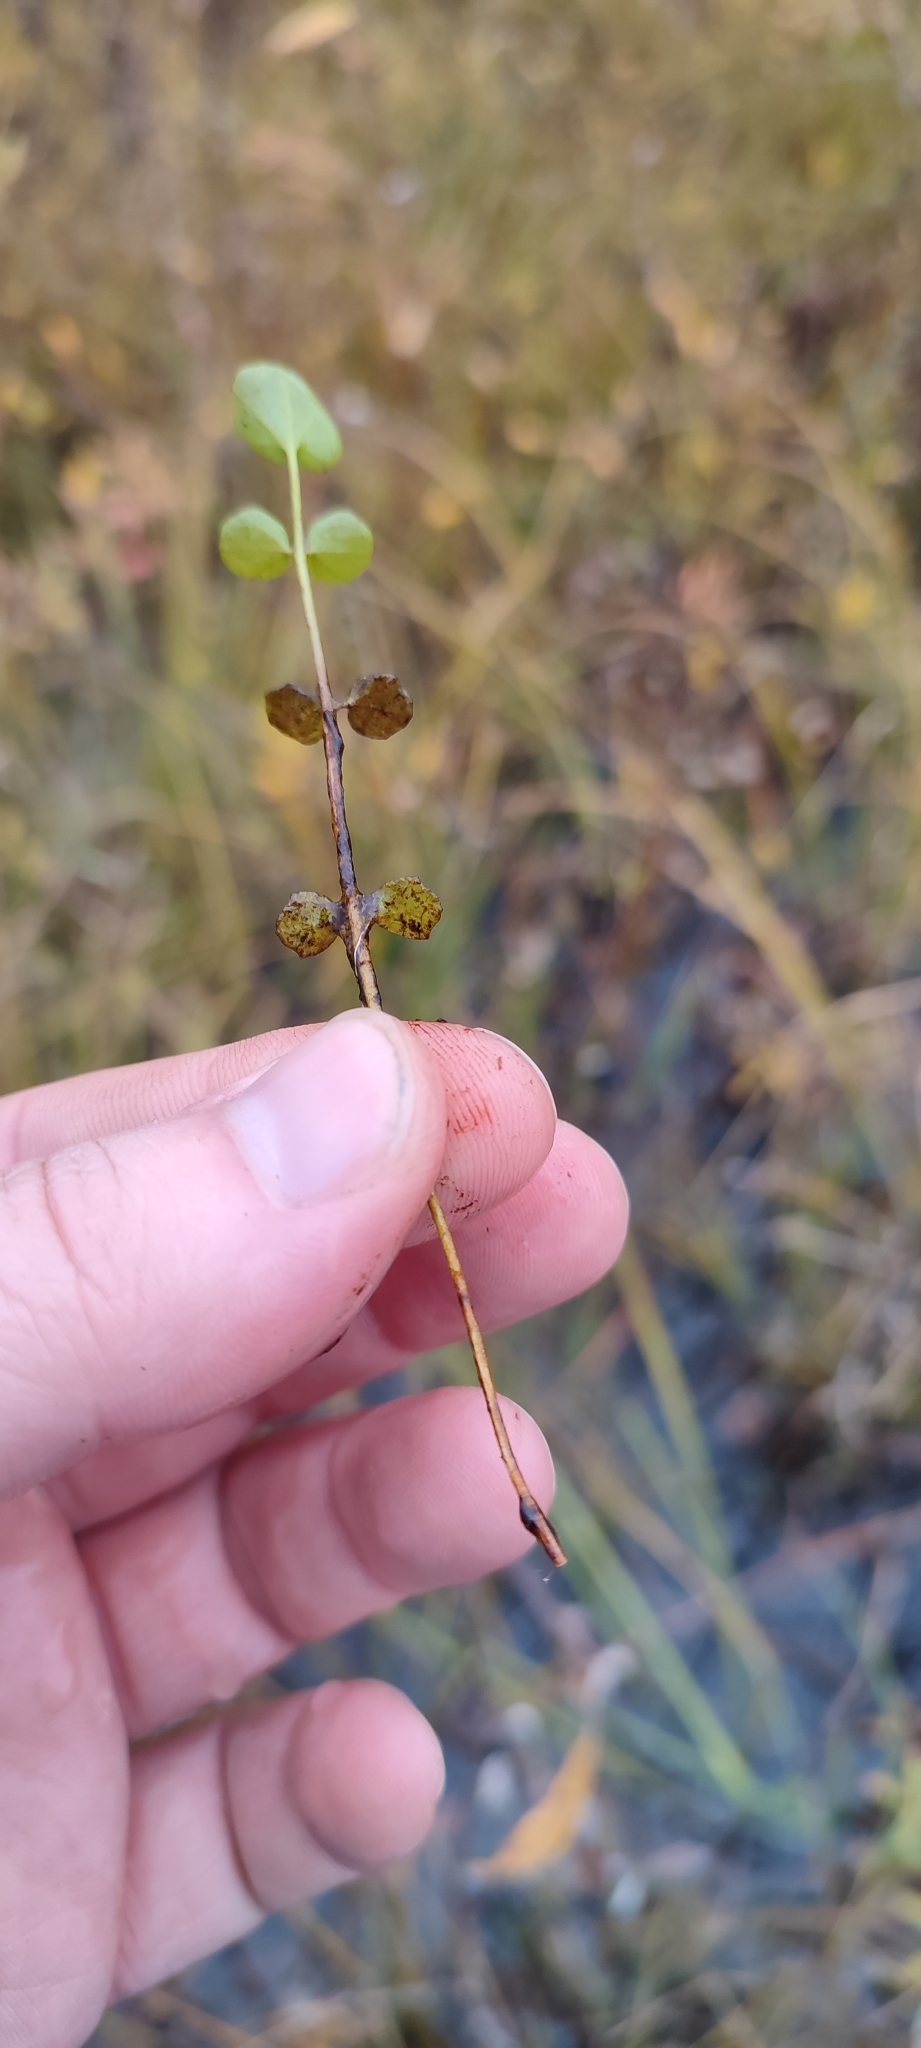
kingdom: Plantae
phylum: Tracheophyta
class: Magnoliopsida
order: Brassicales
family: Brassicaceae
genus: Cardamine
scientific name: Cardamine dentata
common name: Toothed bittercress
